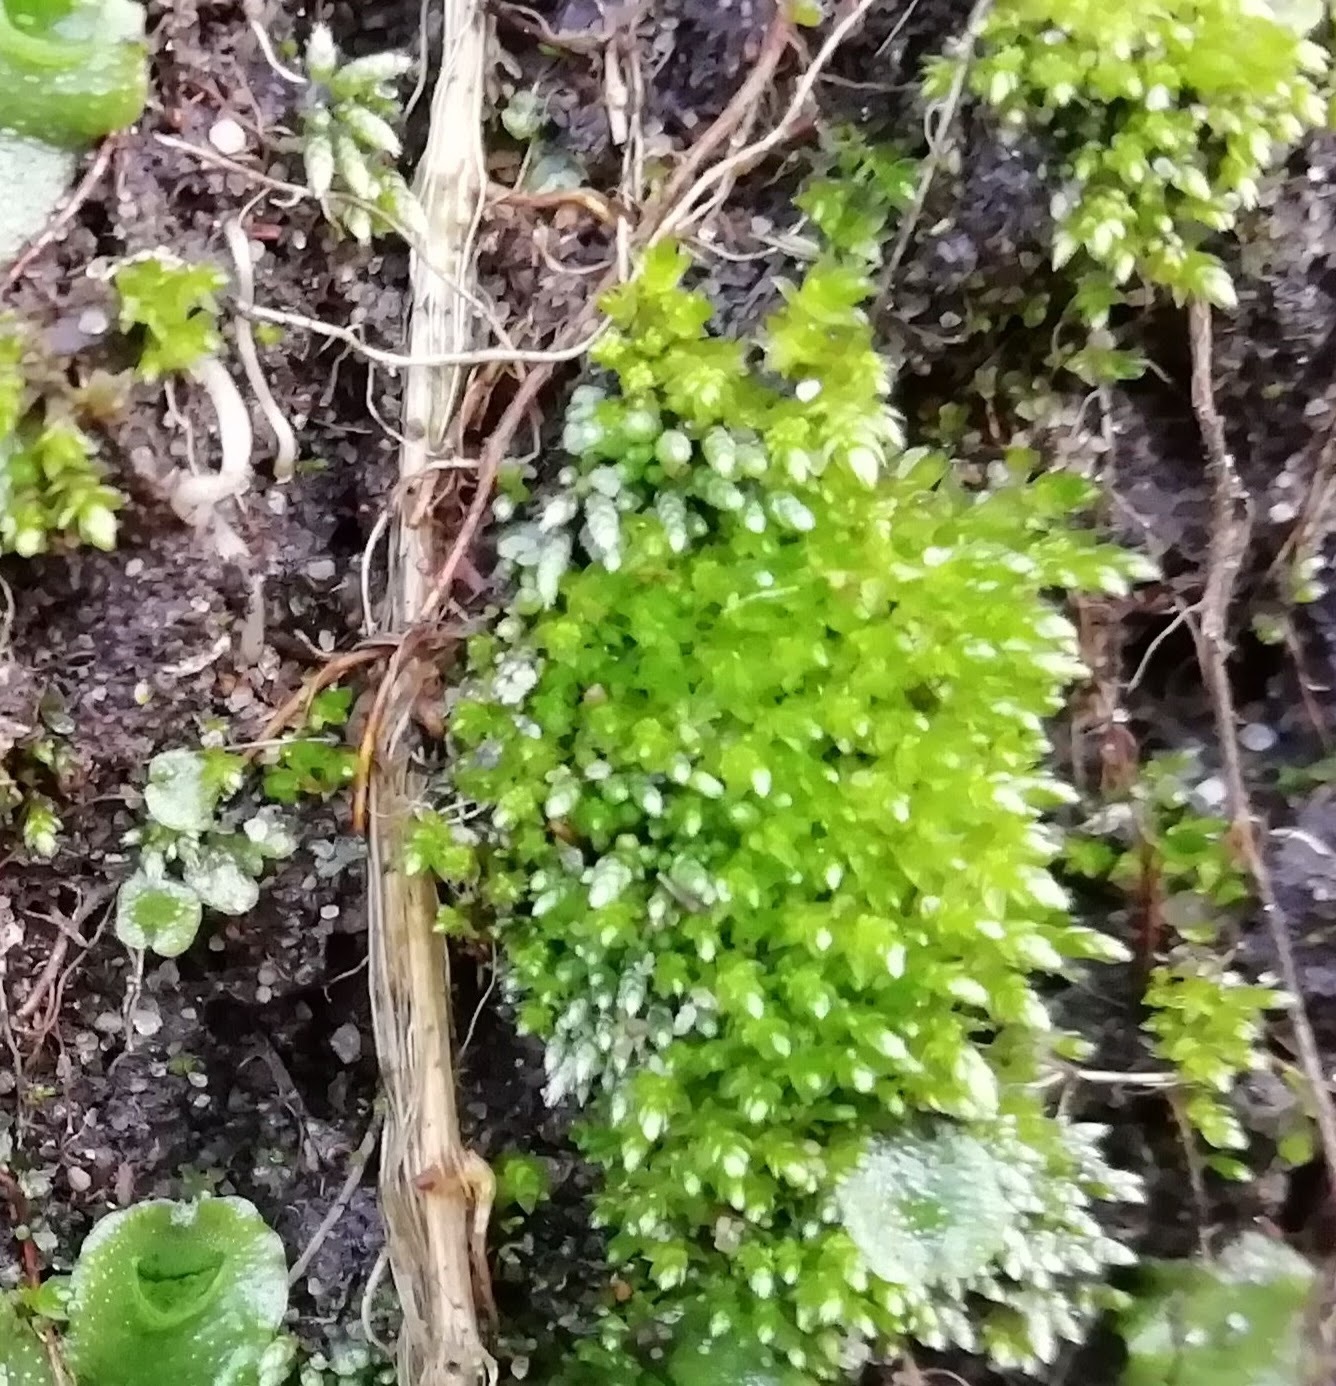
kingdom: Plantae
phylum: Bryophyta
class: Bryopsida
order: Bryales
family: Bryaceae
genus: Bryum
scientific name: Bryum argenteum
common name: Silver-moss
